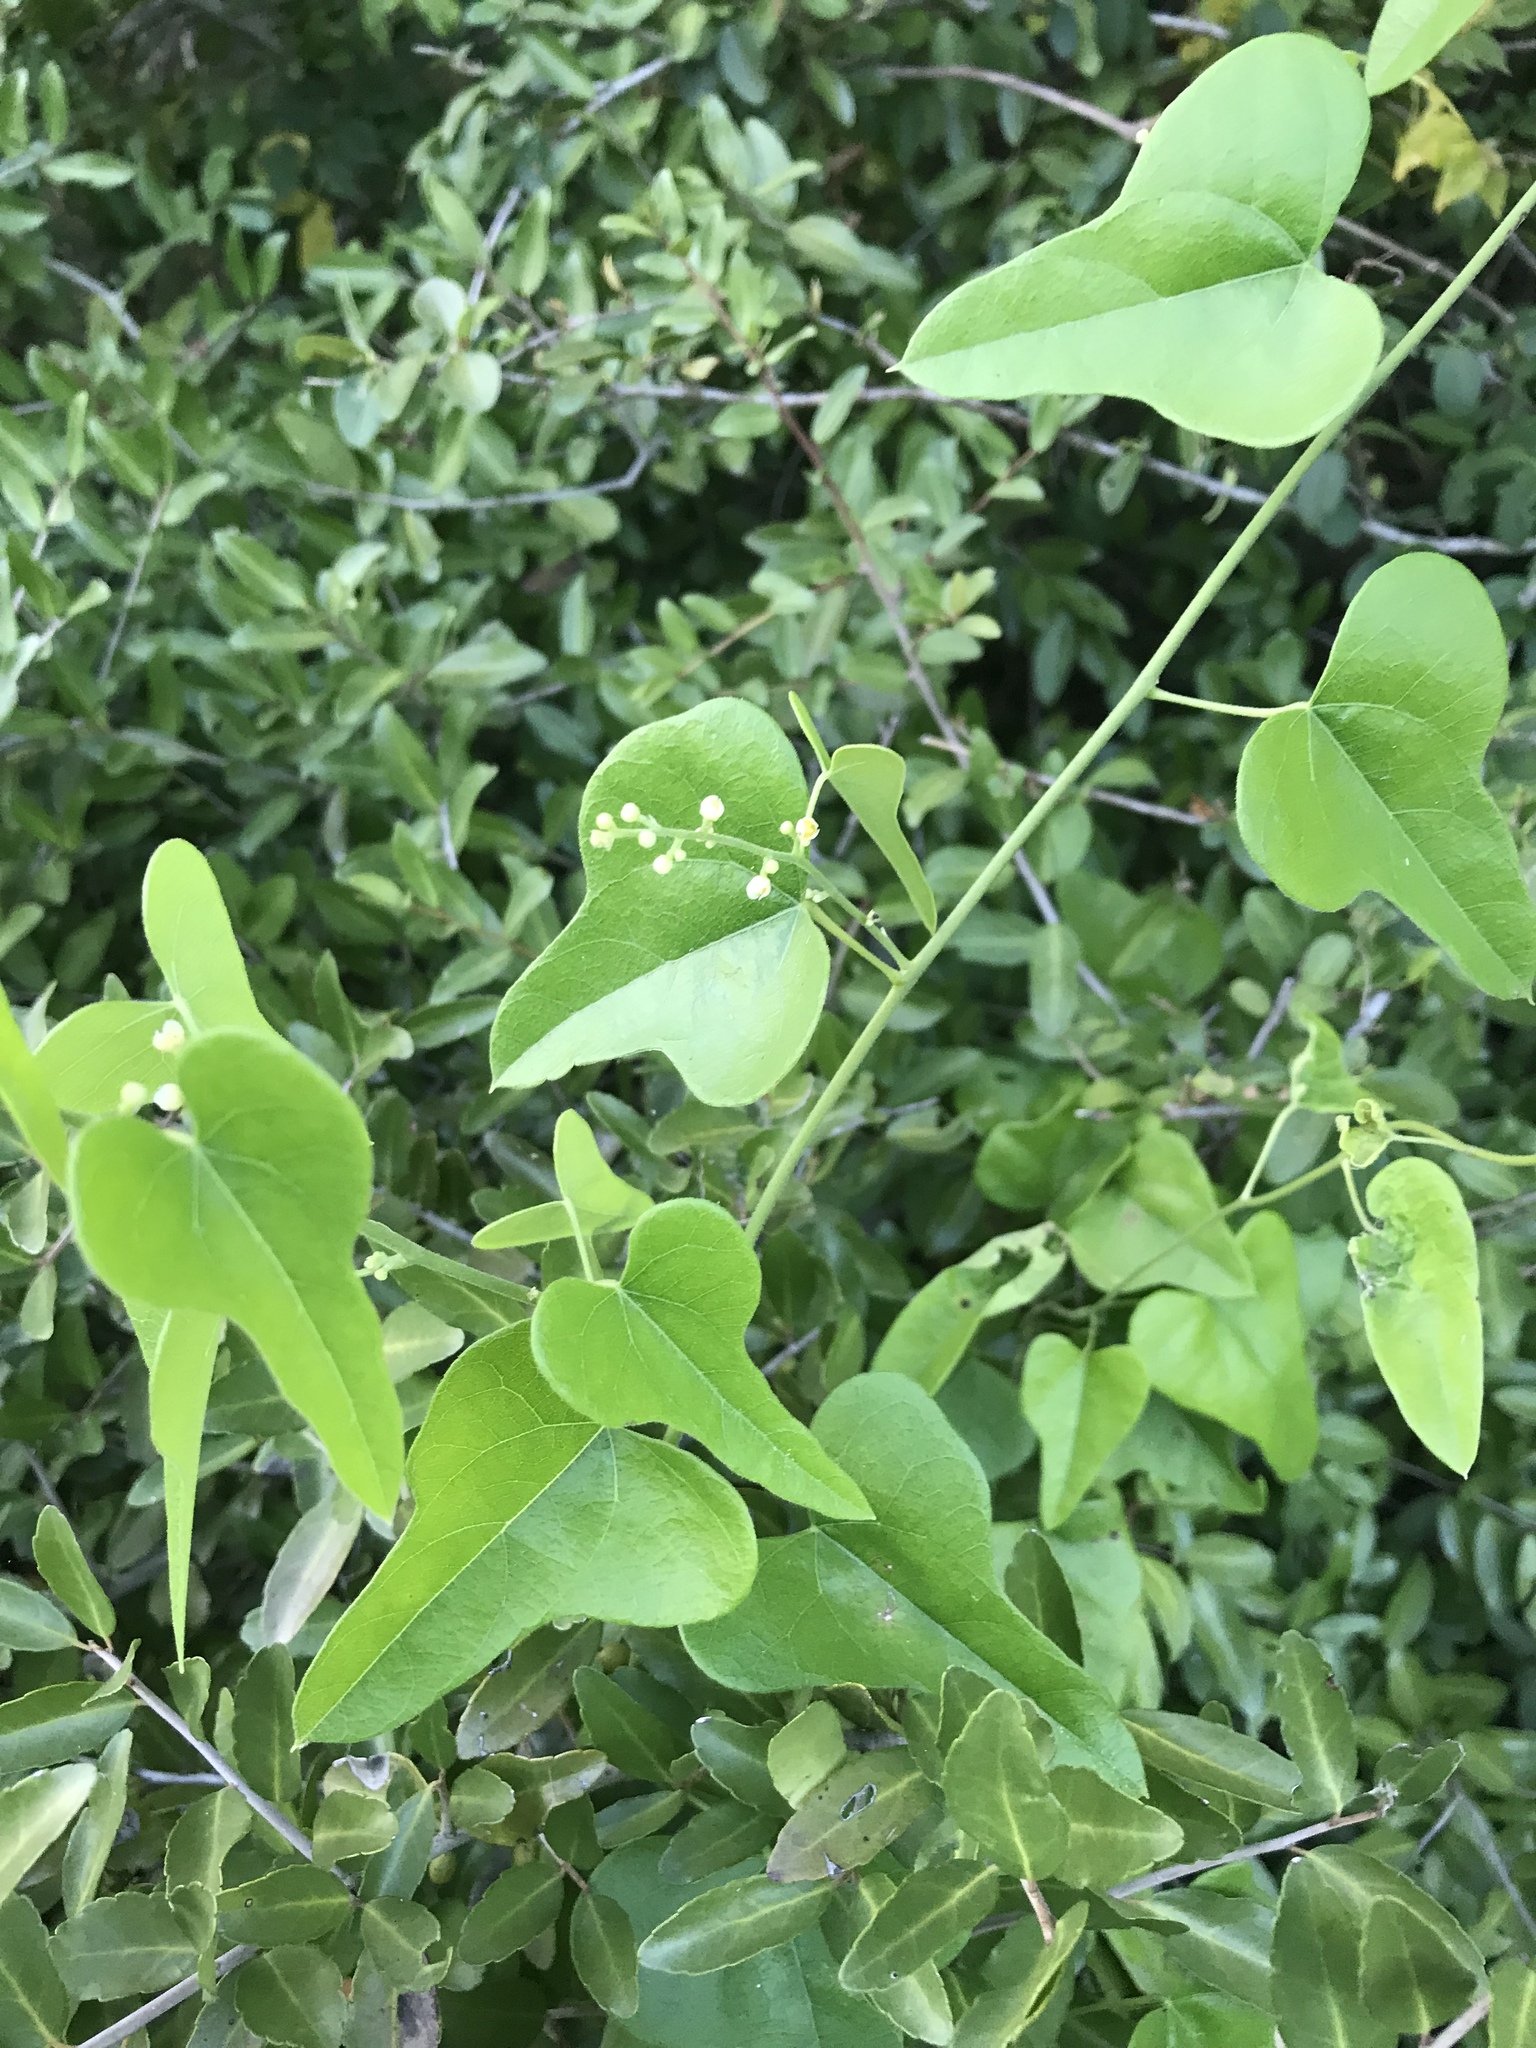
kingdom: Plantae
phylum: Tracheophyta
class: Magnoliopsida
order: Ranunculales
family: Menispermaceae
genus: Cocculus
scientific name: Cocculus carolinus
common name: Carolina moonseed
